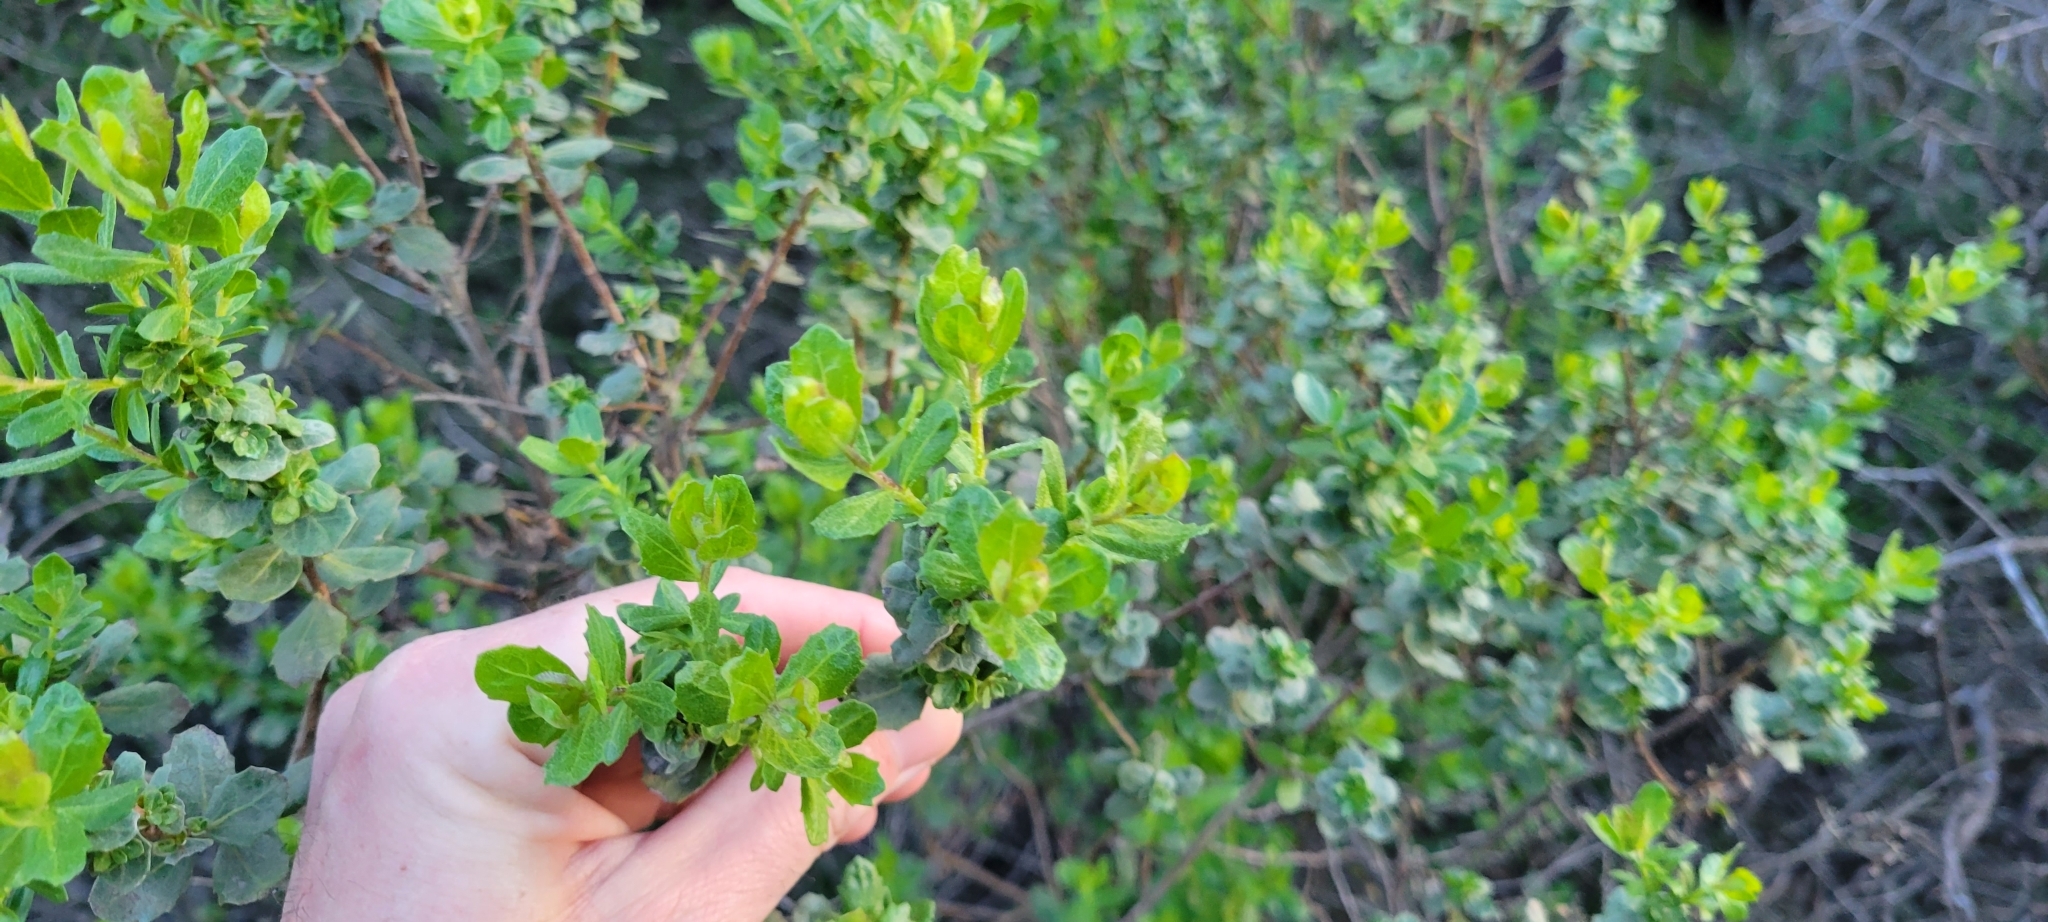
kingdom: Plantae
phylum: Tracheophyta
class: Magnoliopsida
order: Asterales
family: Asteraceae
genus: Baccharis
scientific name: Baccharis pilularis
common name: Coyotebrush
